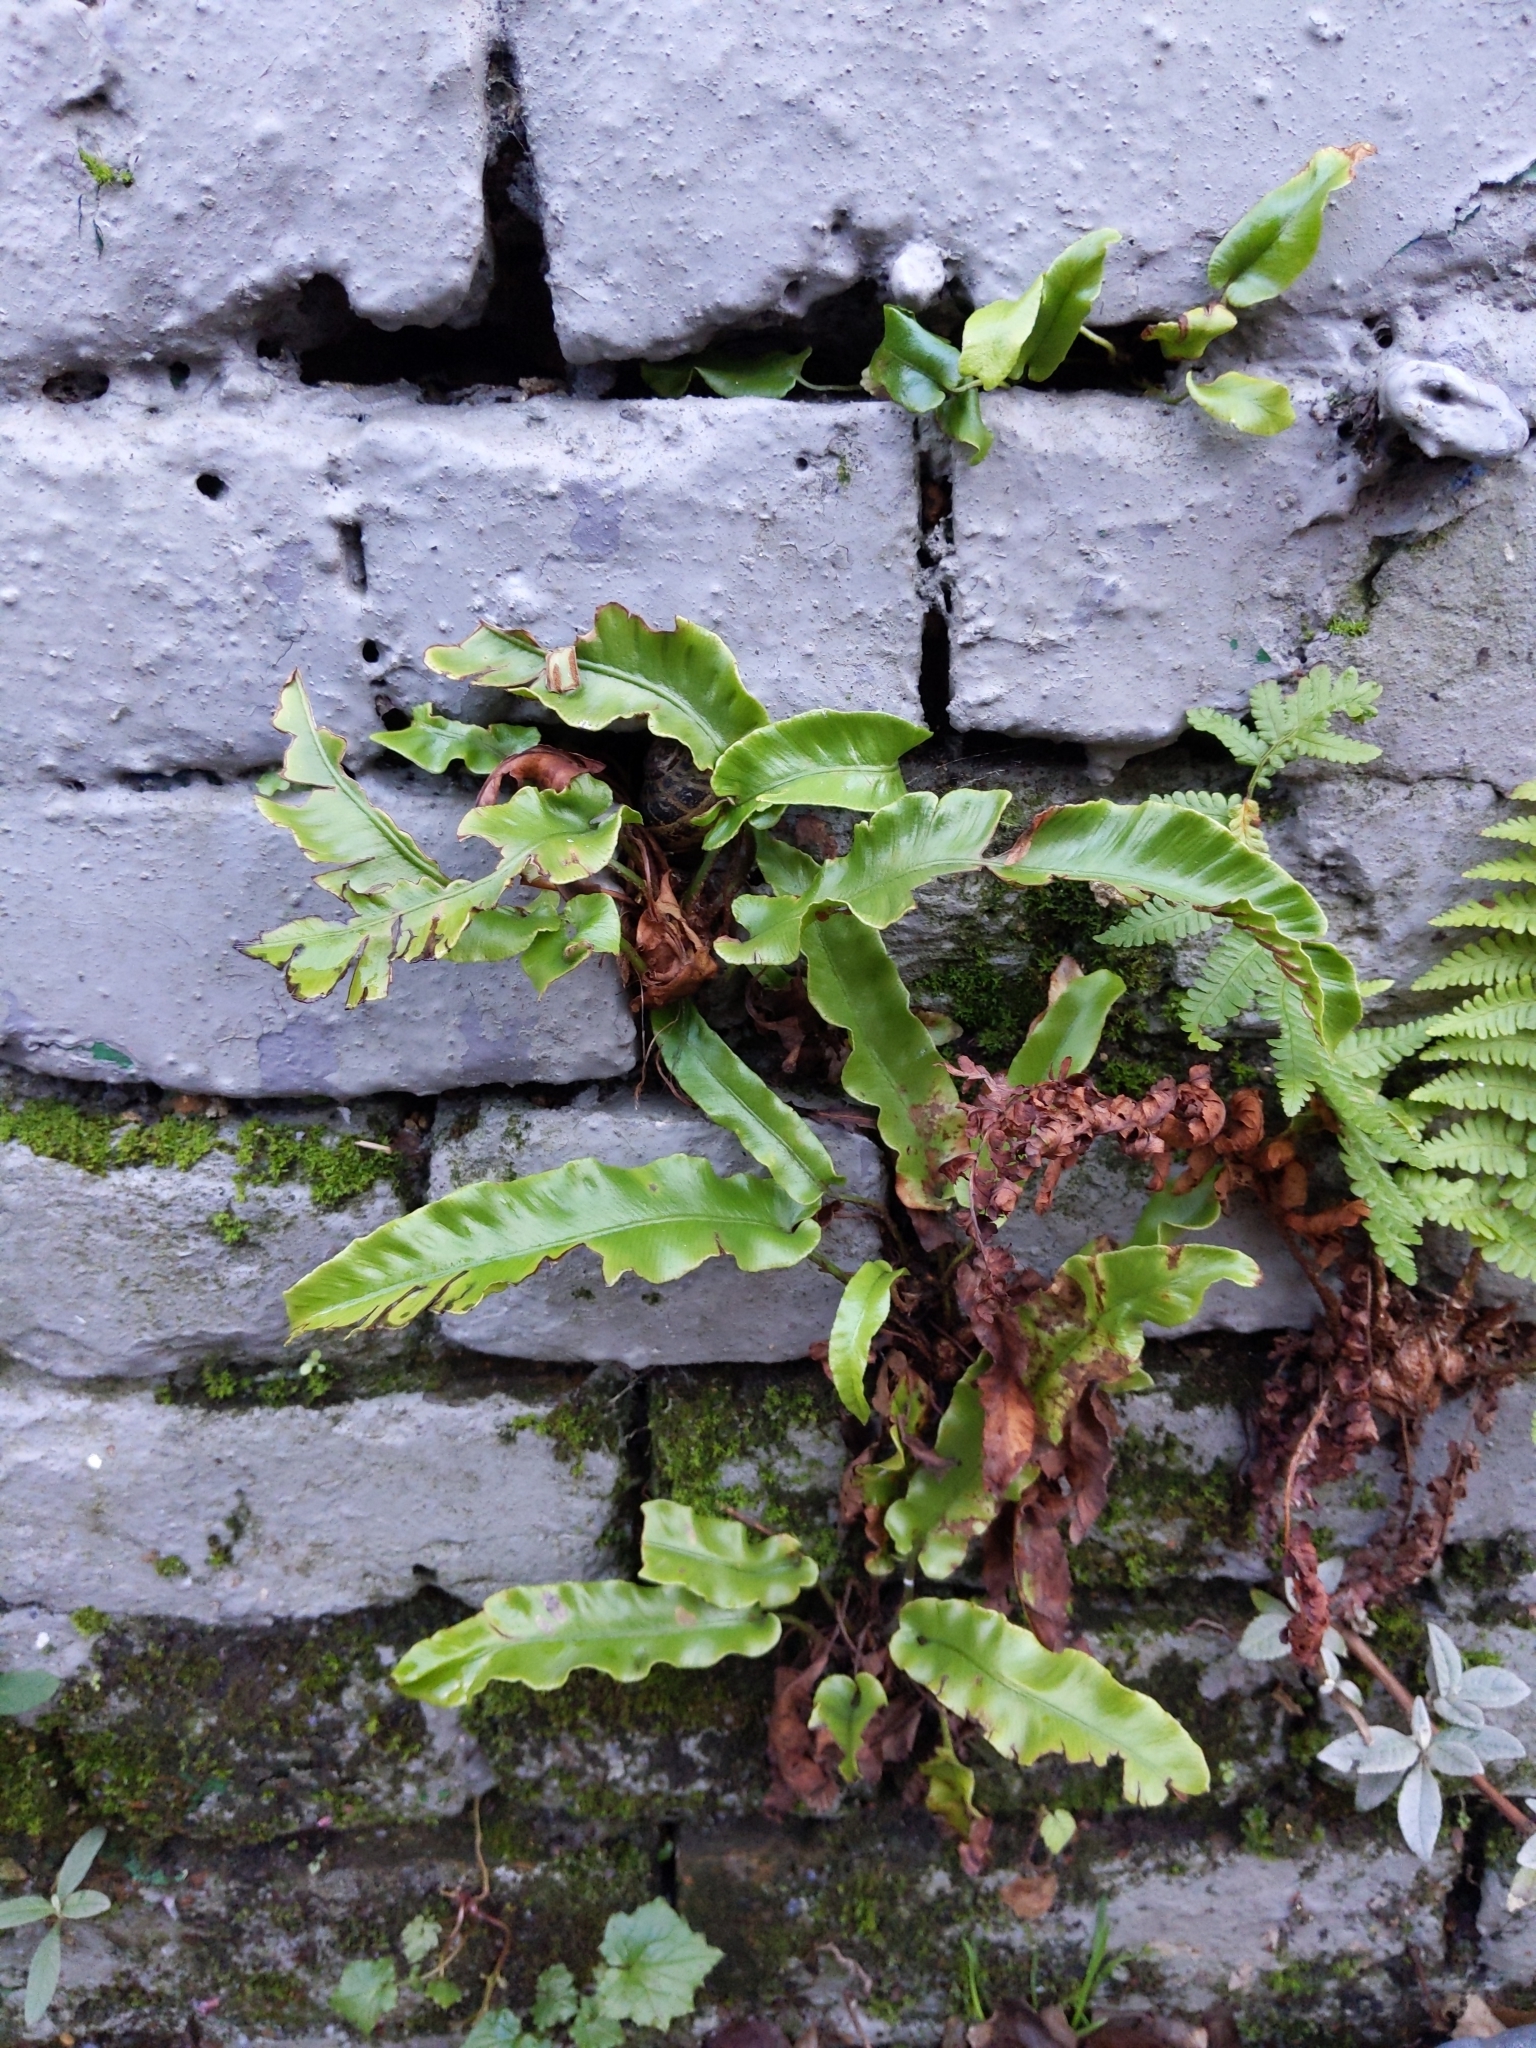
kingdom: Plantae
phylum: Tracheophyta
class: Polypodiopsida
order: Polypodiales
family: Aspleniaceae
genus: Asplenium
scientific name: Asplenium scolopendrium
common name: Hart's-tongue fern
